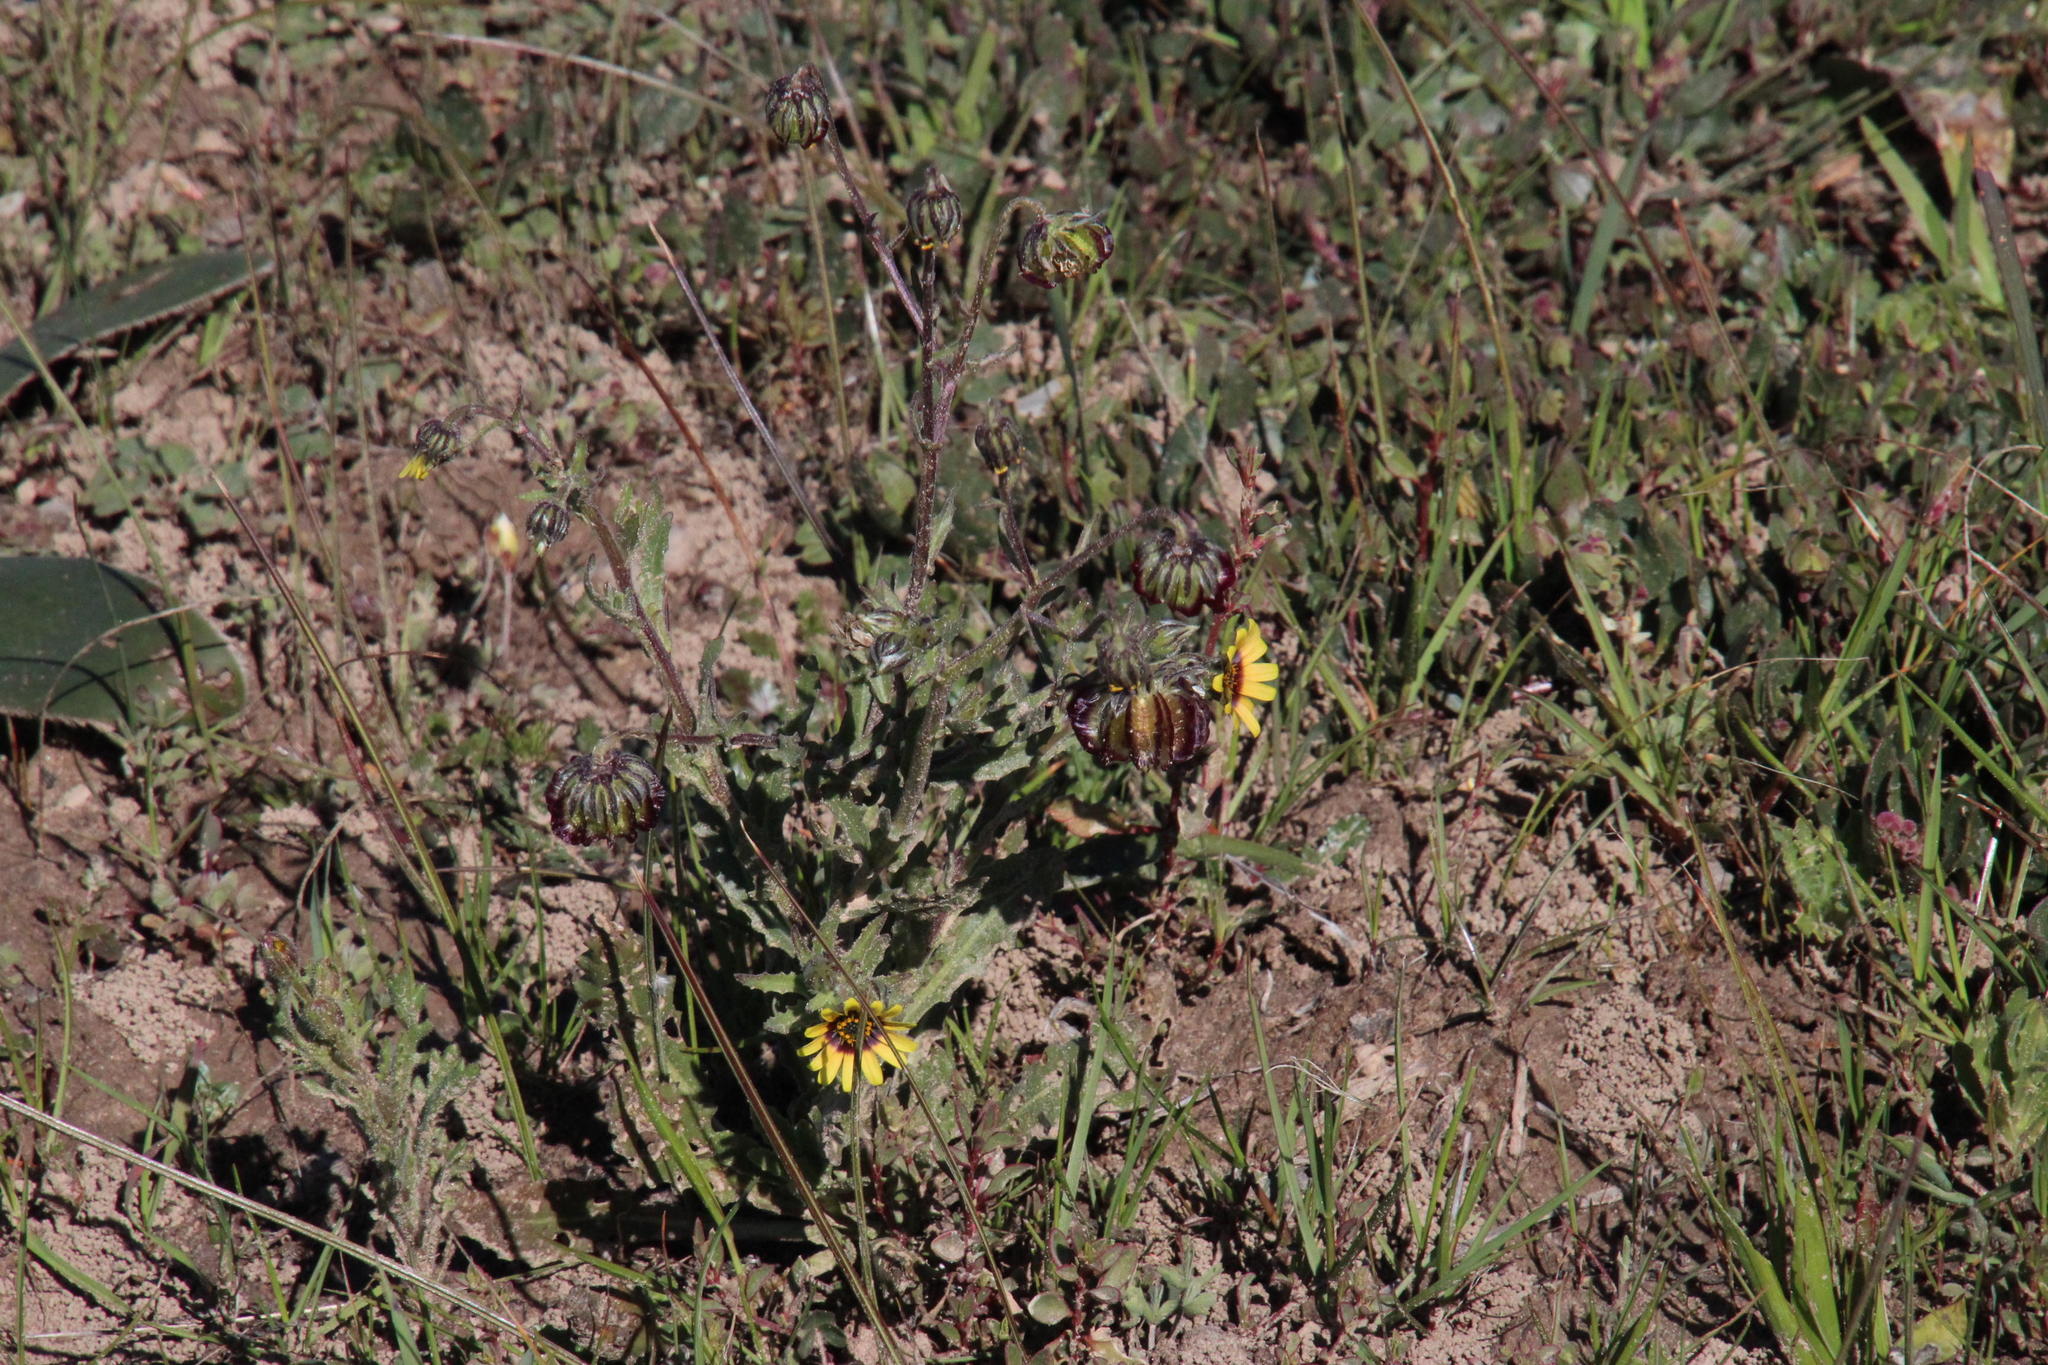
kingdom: Plantae
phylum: Tracheophyta
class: Magnoliopsida
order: Asterales
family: Asteraceae
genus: Osteospermum
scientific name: Osteospermum monstrosum
